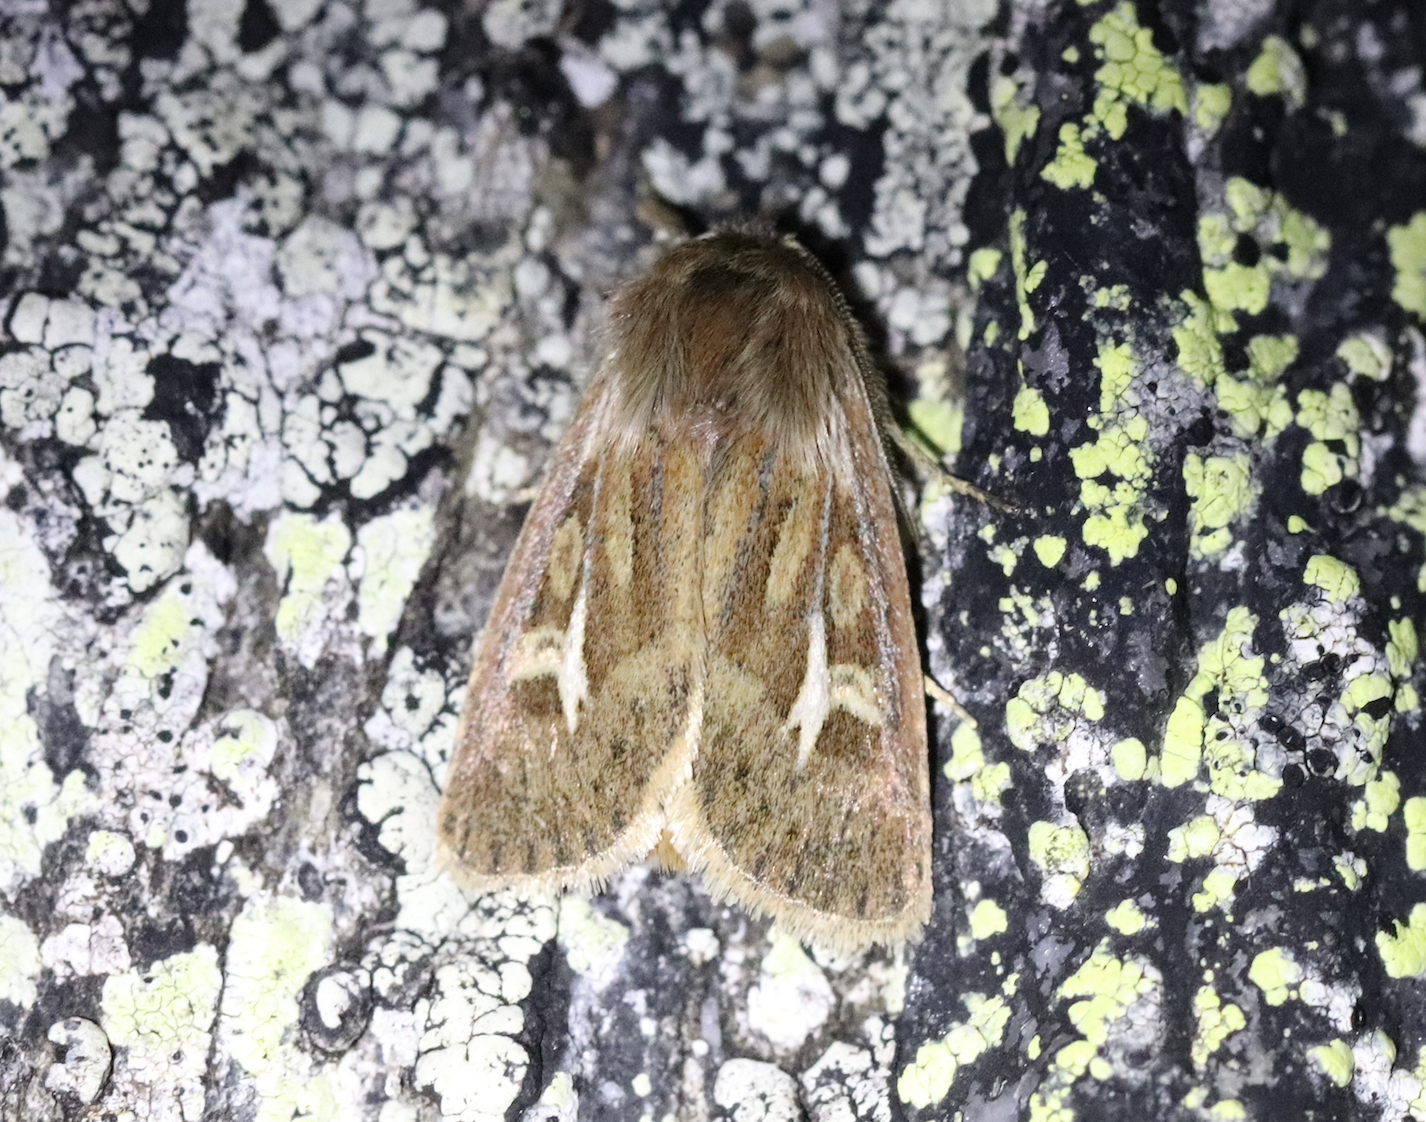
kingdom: Animalia
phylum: Arthropoda
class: Insecta
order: Lepidoptera
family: Noctuidae
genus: Cerapteryx
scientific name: Cerapteryx graminis
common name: Antler moth
